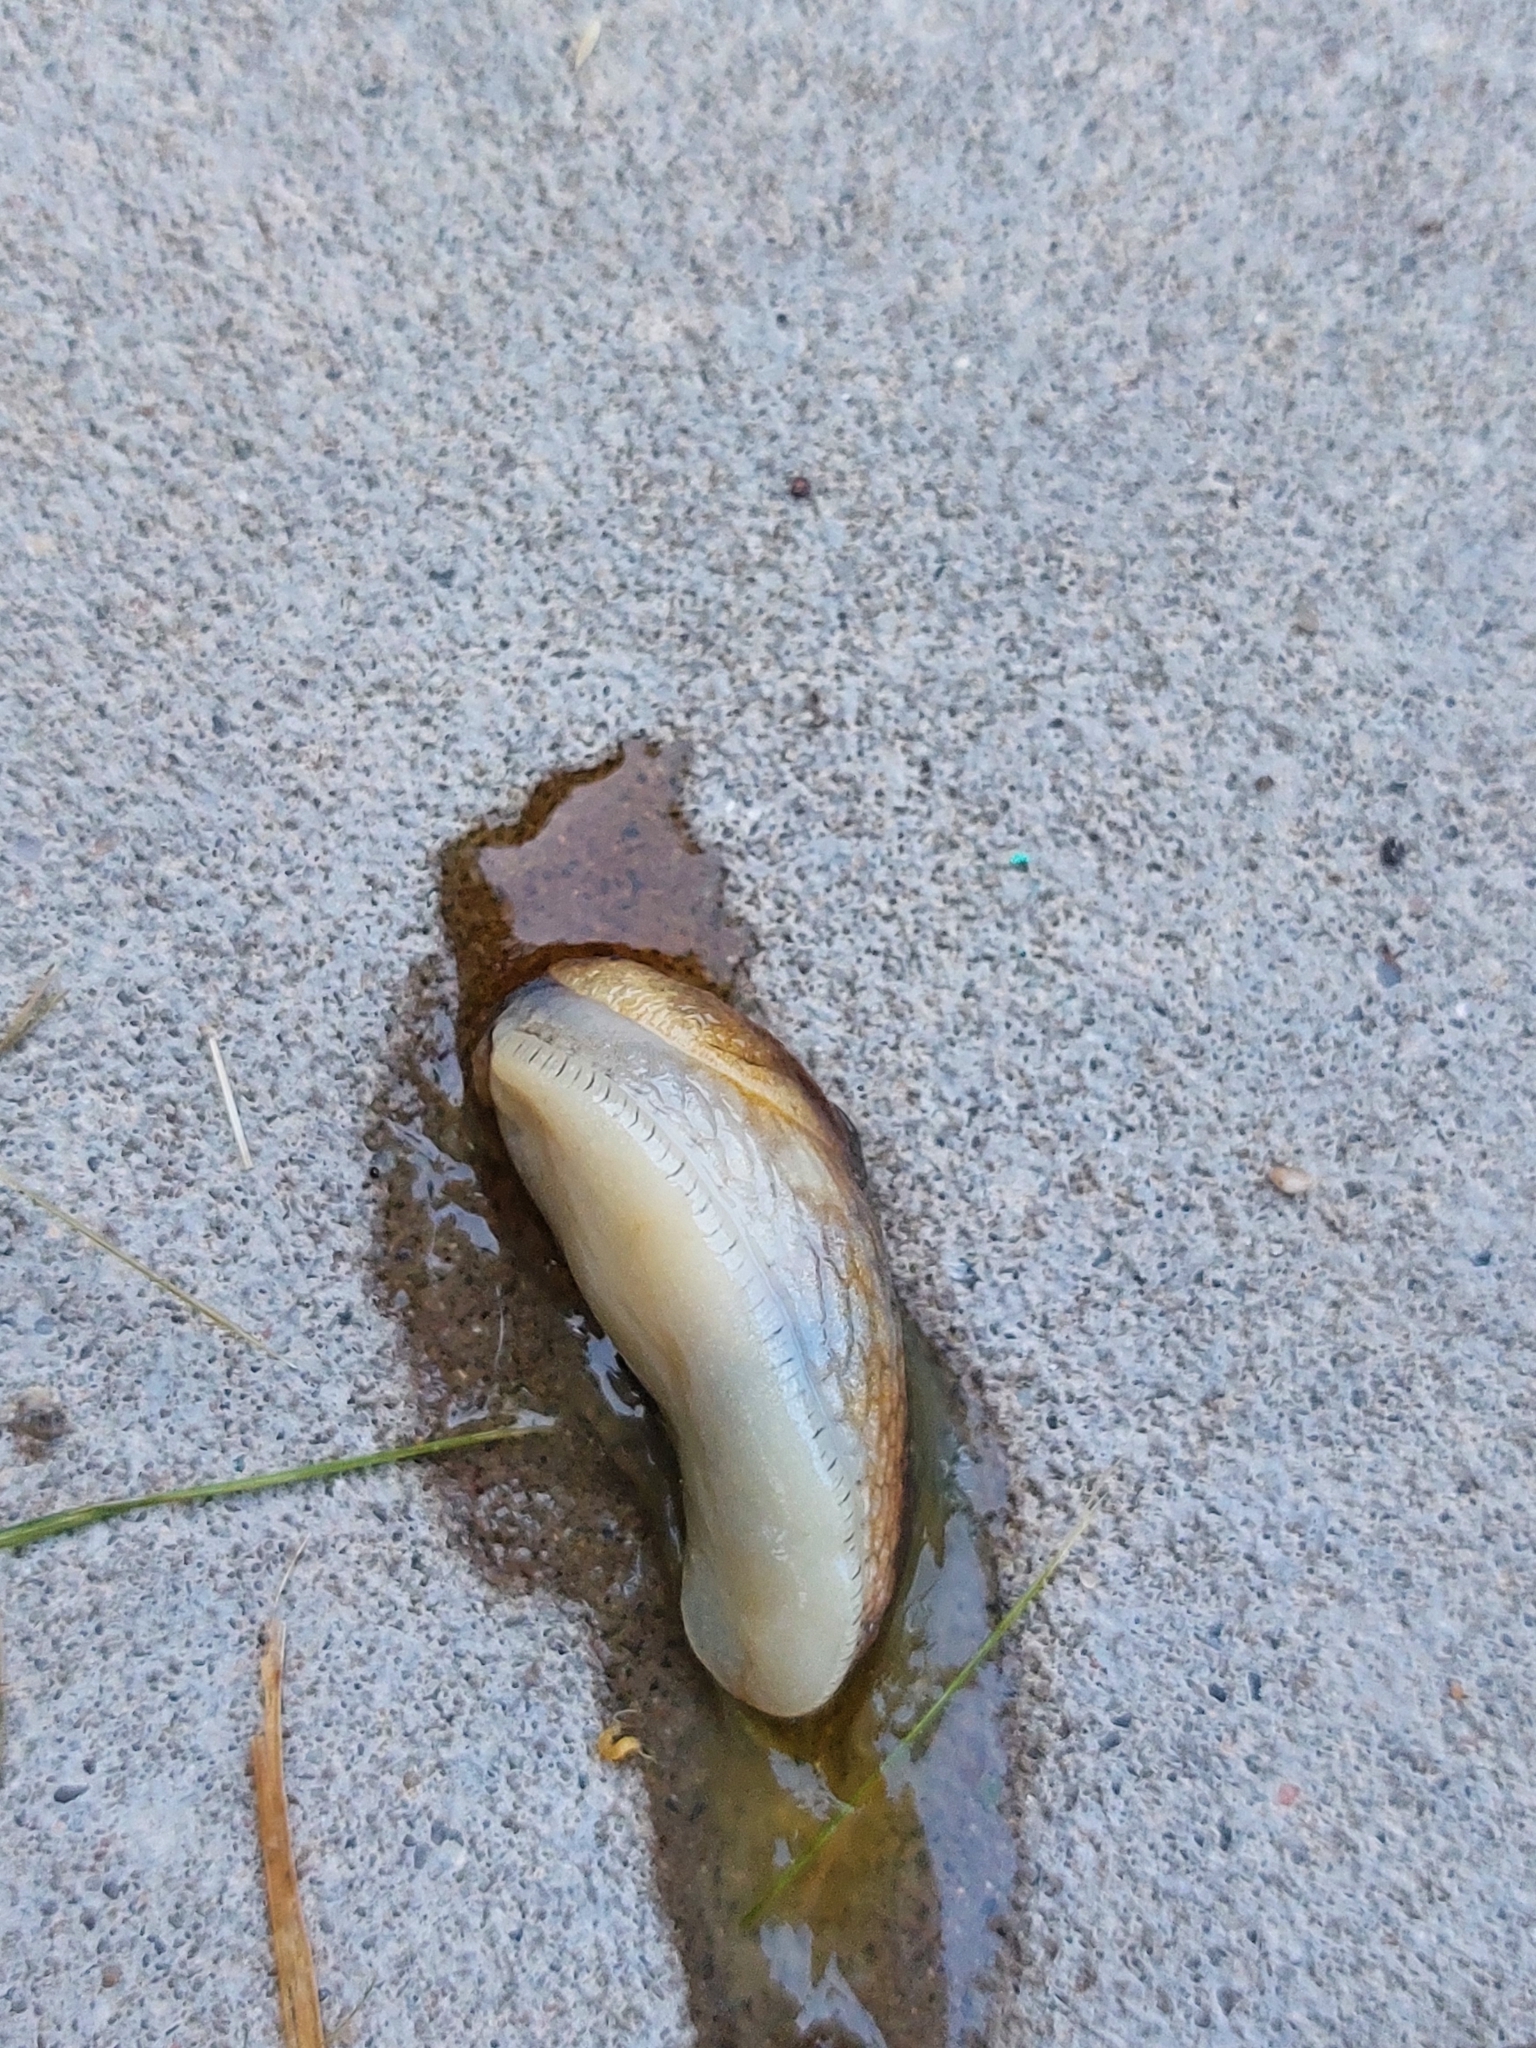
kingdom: Animalia
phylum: Mollusca
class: Gastropoda
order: Stylommatophora
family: Arionidae
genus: Arion
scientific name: Arion fuscus
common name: Northern dusky slug
